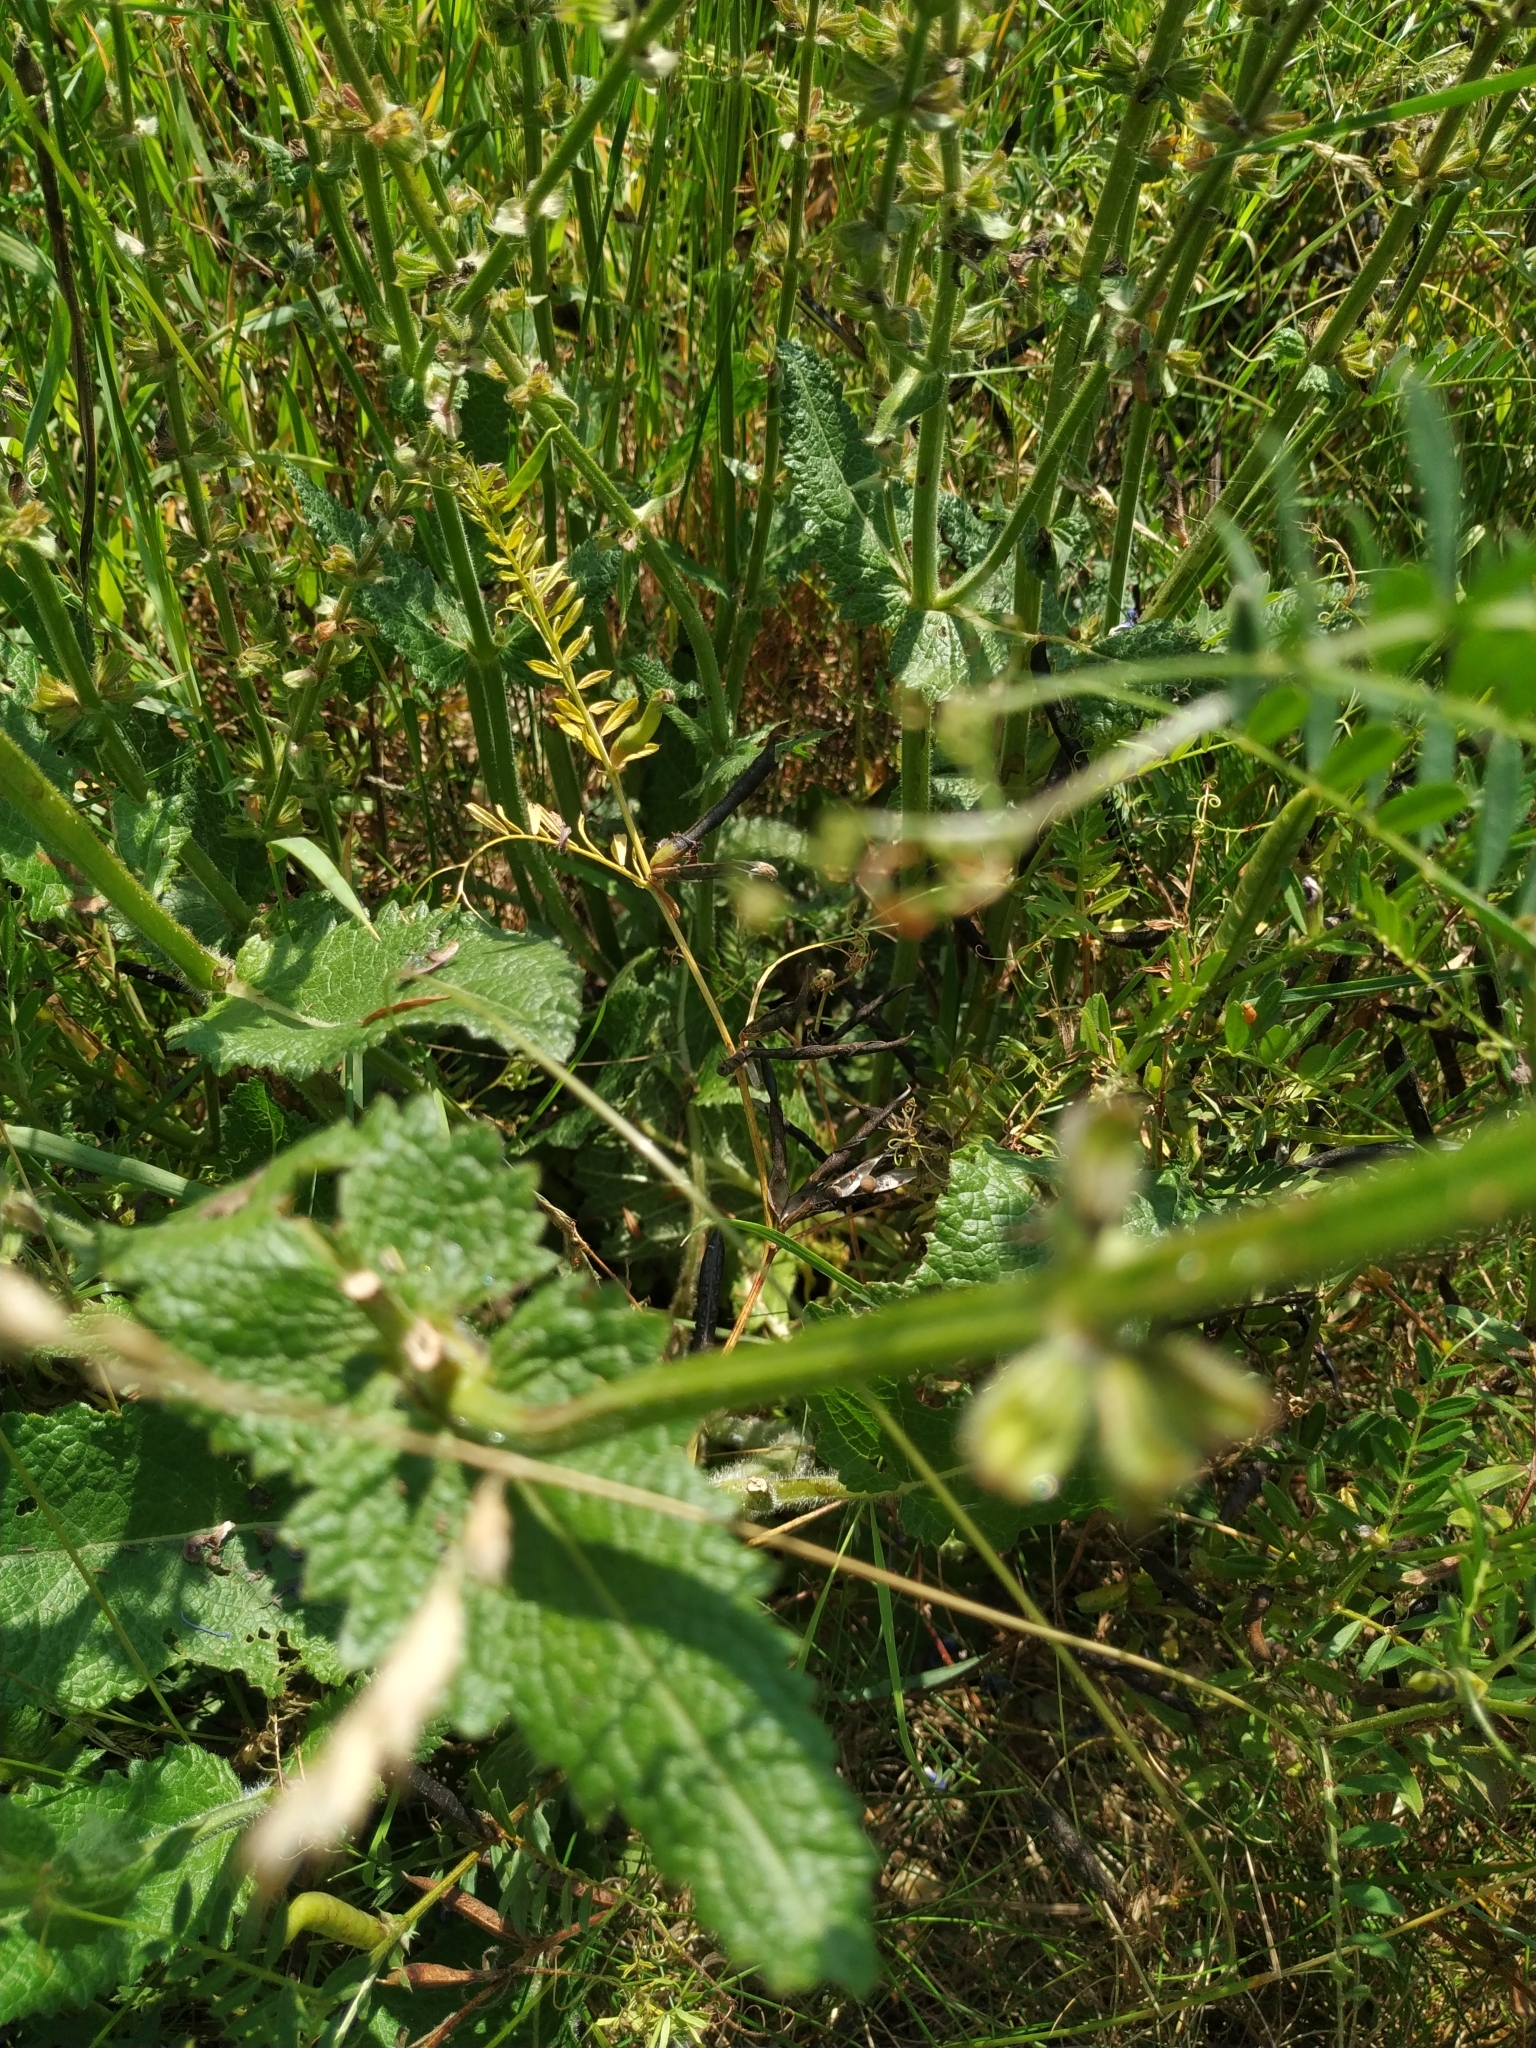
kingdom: Plantae
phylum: Tracheophyta
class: Magnoliopsida
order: Lamiales
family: Lamiaceae
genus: Salvia
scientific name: Salvia pratensis
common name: Meadow sage
